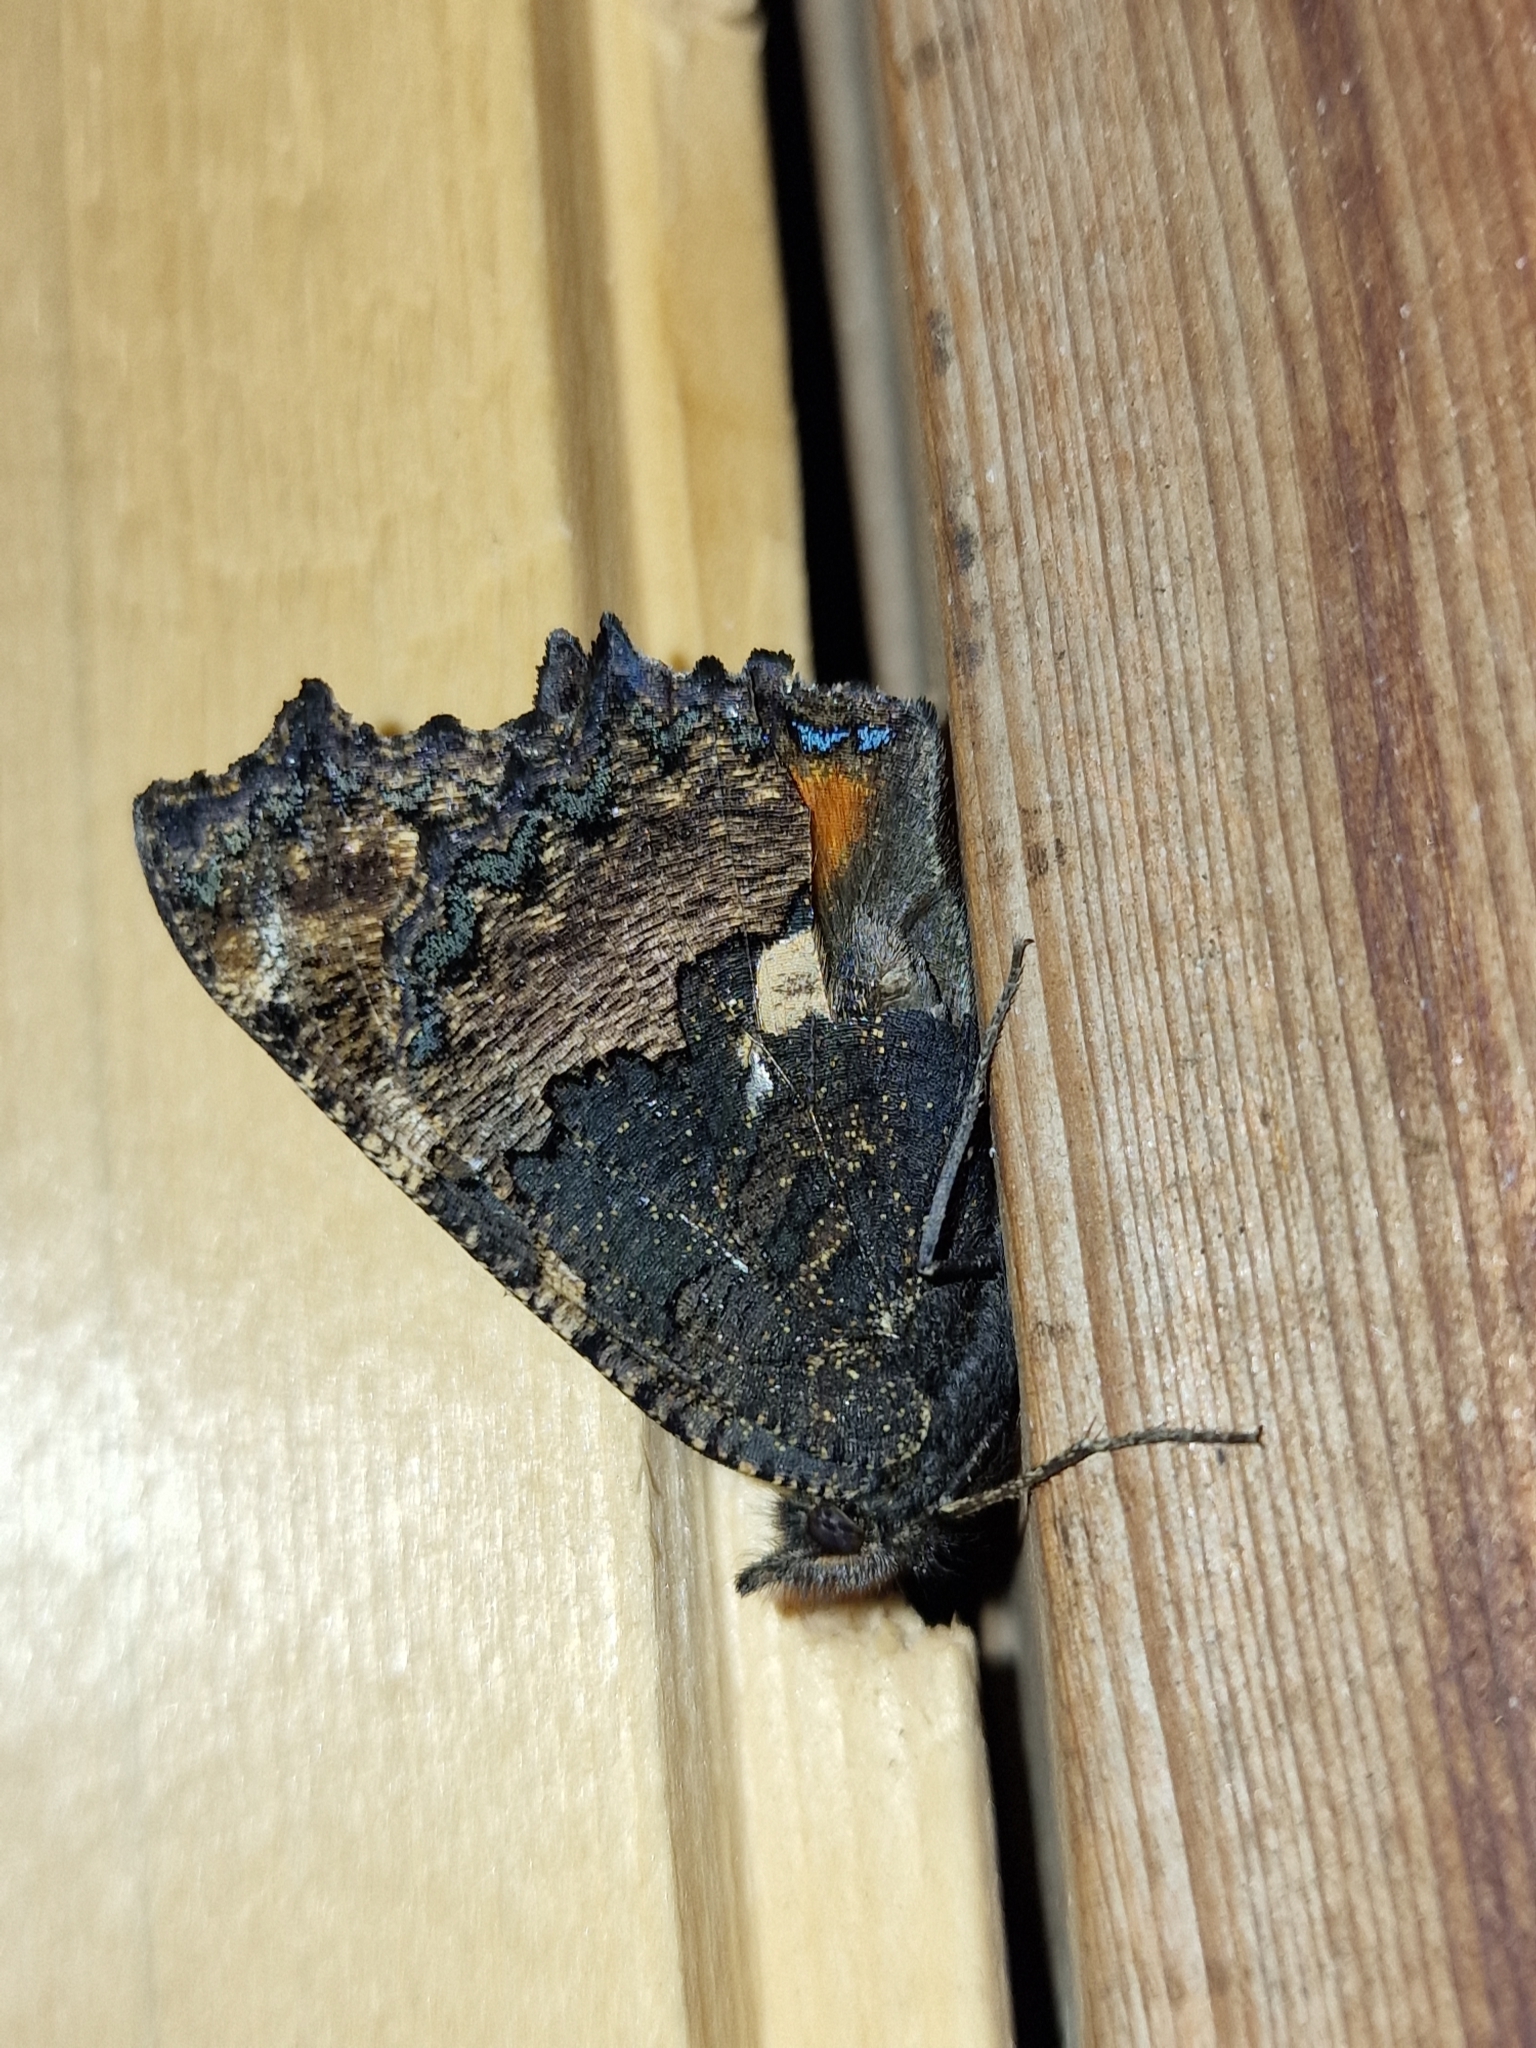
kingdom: Animalia
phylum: Arthropoda
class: Insecta
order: Lepidoptera
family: Nymphalidae
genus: Aglais
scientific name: Aglais urticae
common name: Small tortoiseshell
